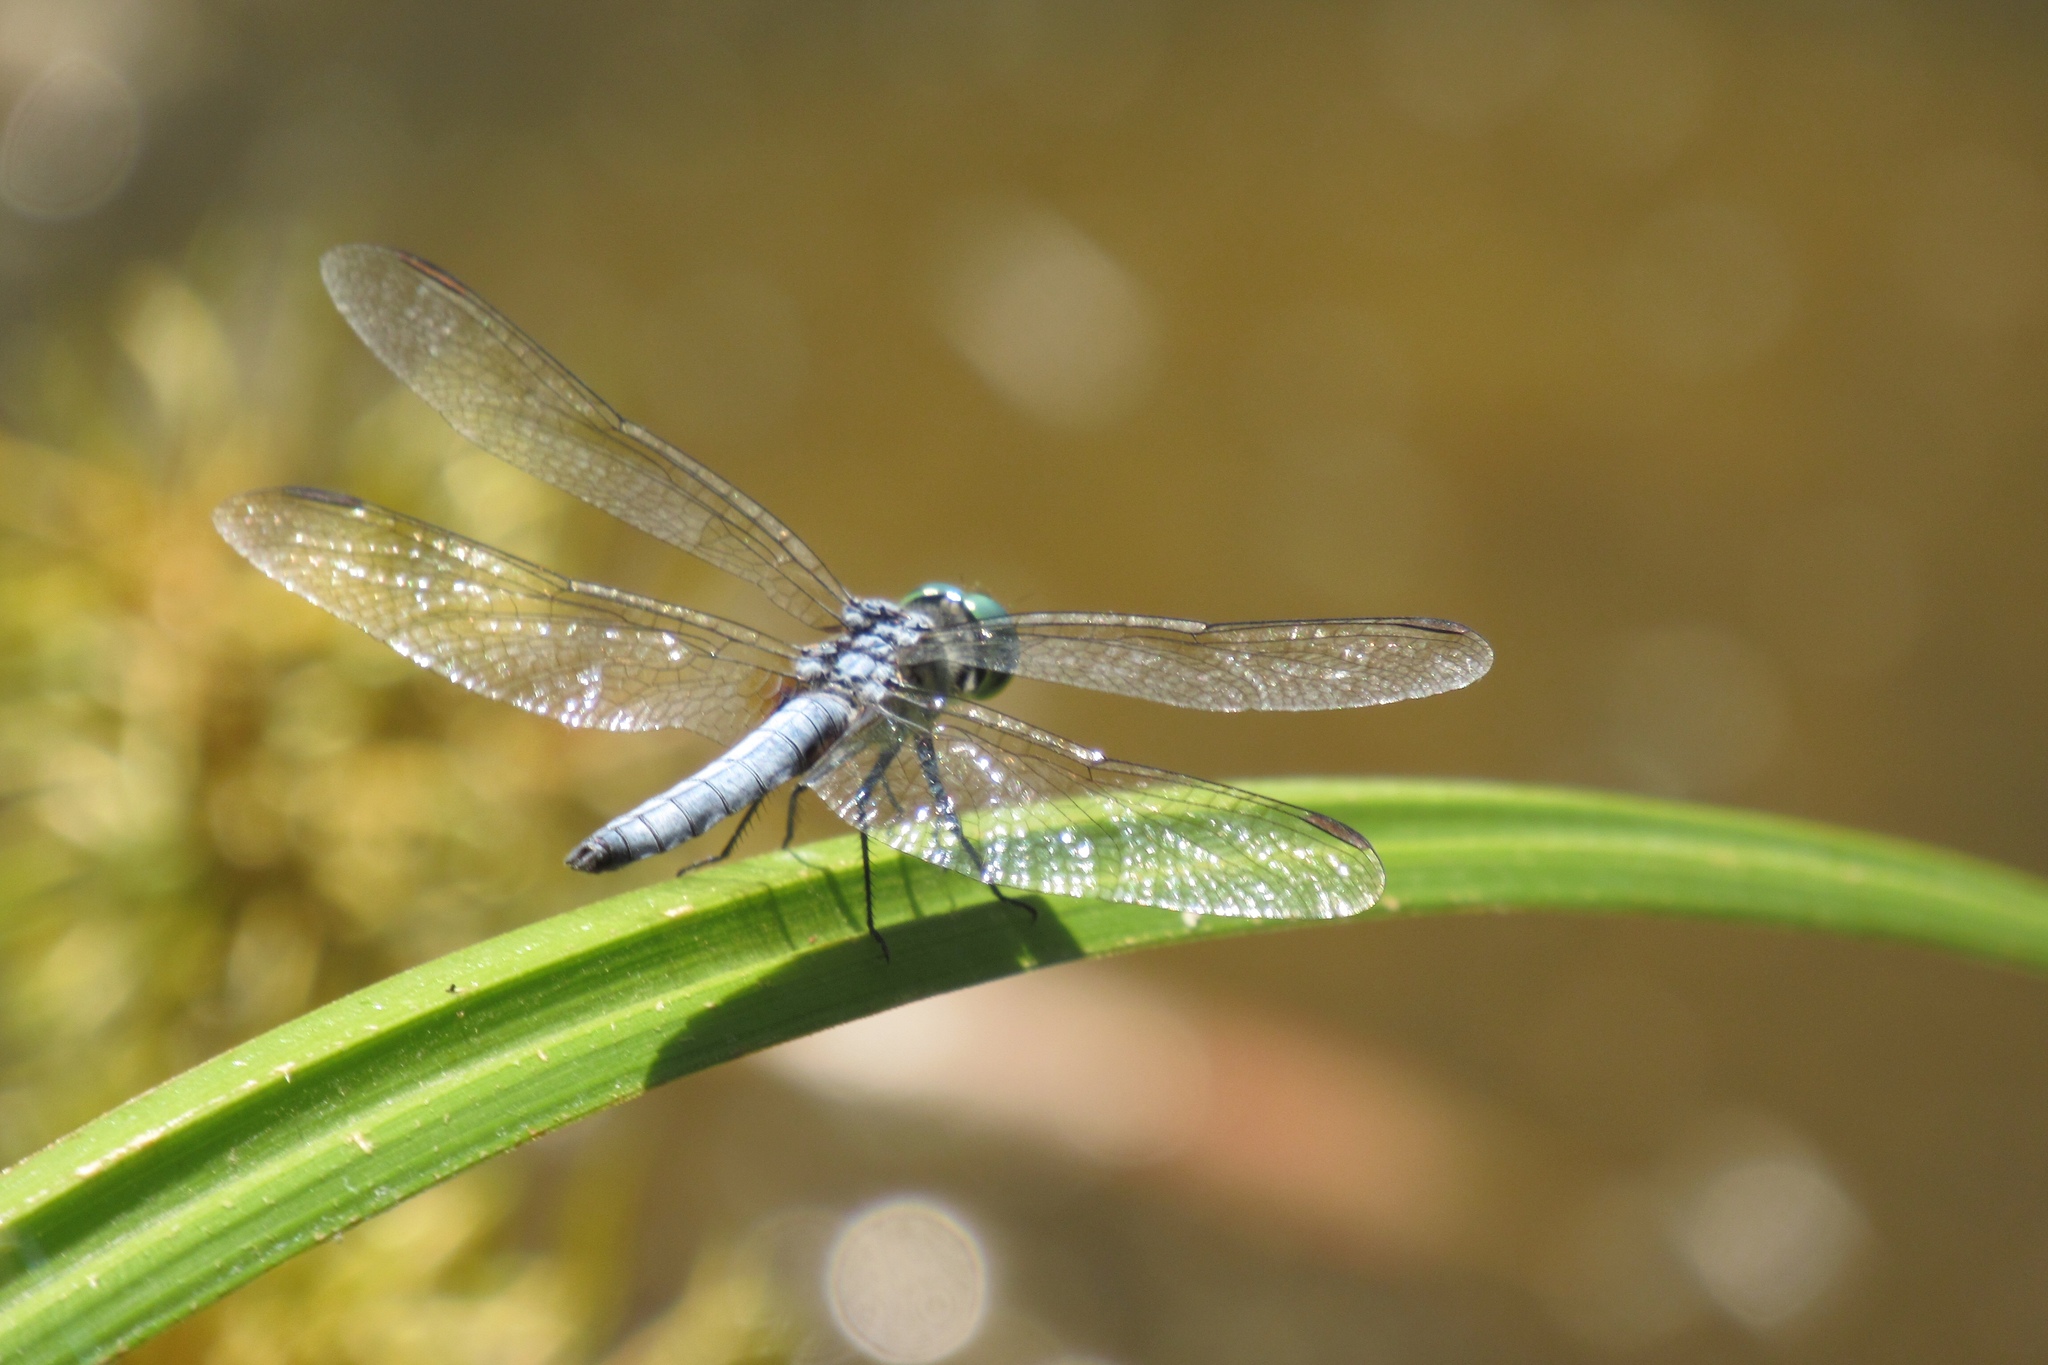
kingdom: Animalia
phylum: Arthropoda
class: Insecta
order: Odonata
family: Libellulidae
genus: Pachydiplax
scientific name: Pachydiplax longipennis
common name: Blue dasher
